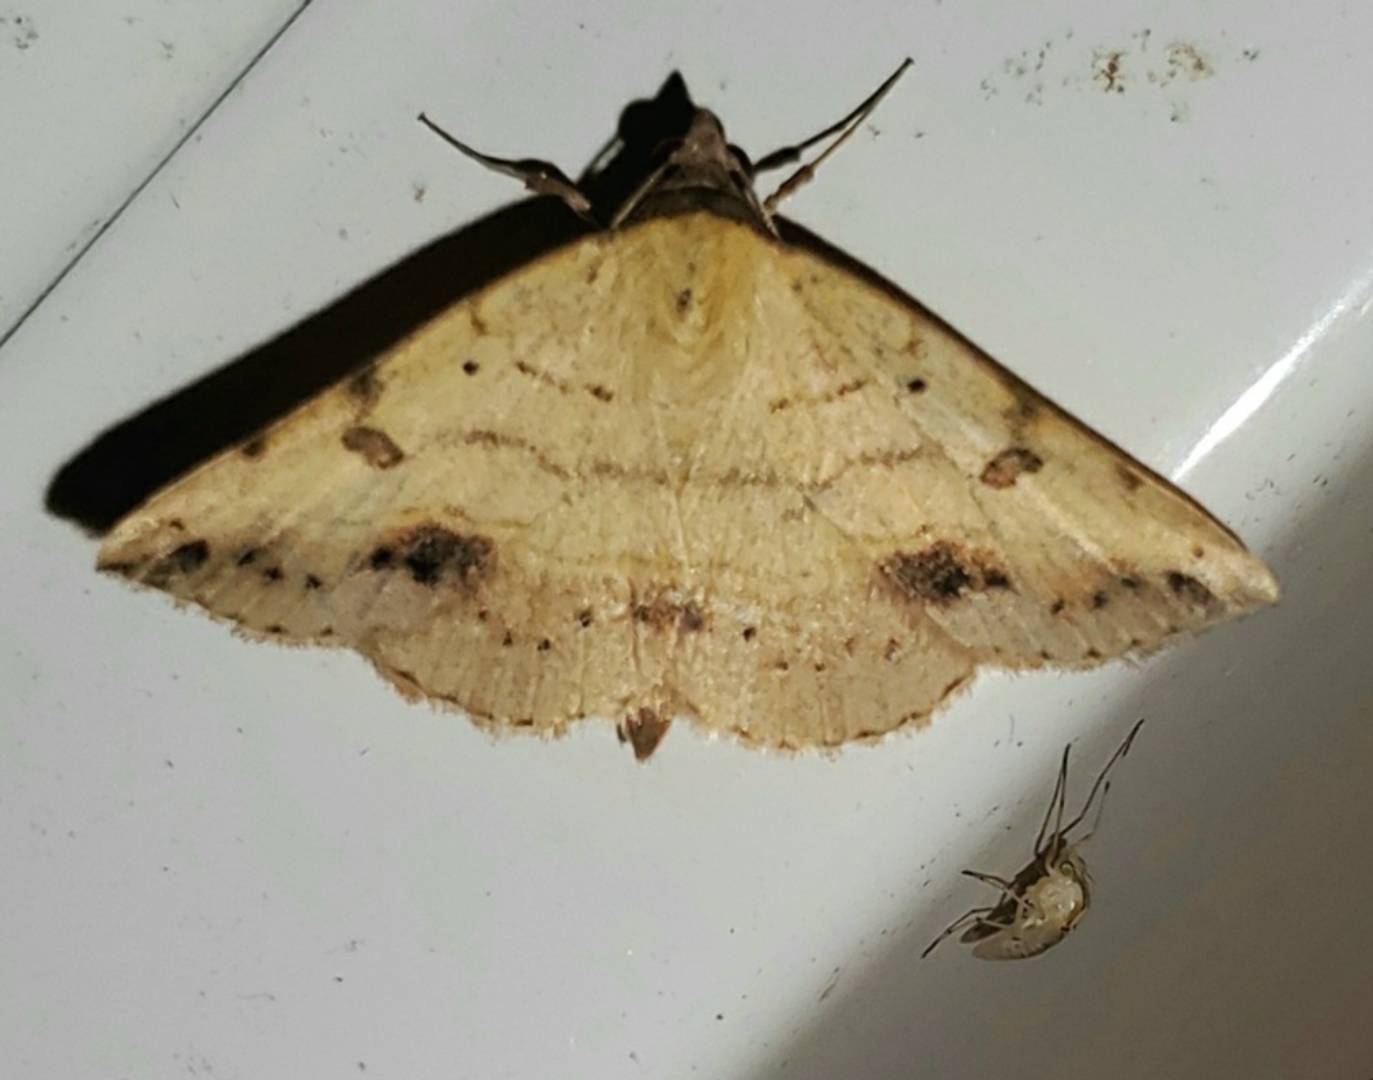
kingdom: Animalia
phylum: Arthropoda
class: Insecta
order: Lepidoptera
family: Erebidae
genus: Hemeroplanis
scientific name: Hemeroplanis scopulepes
